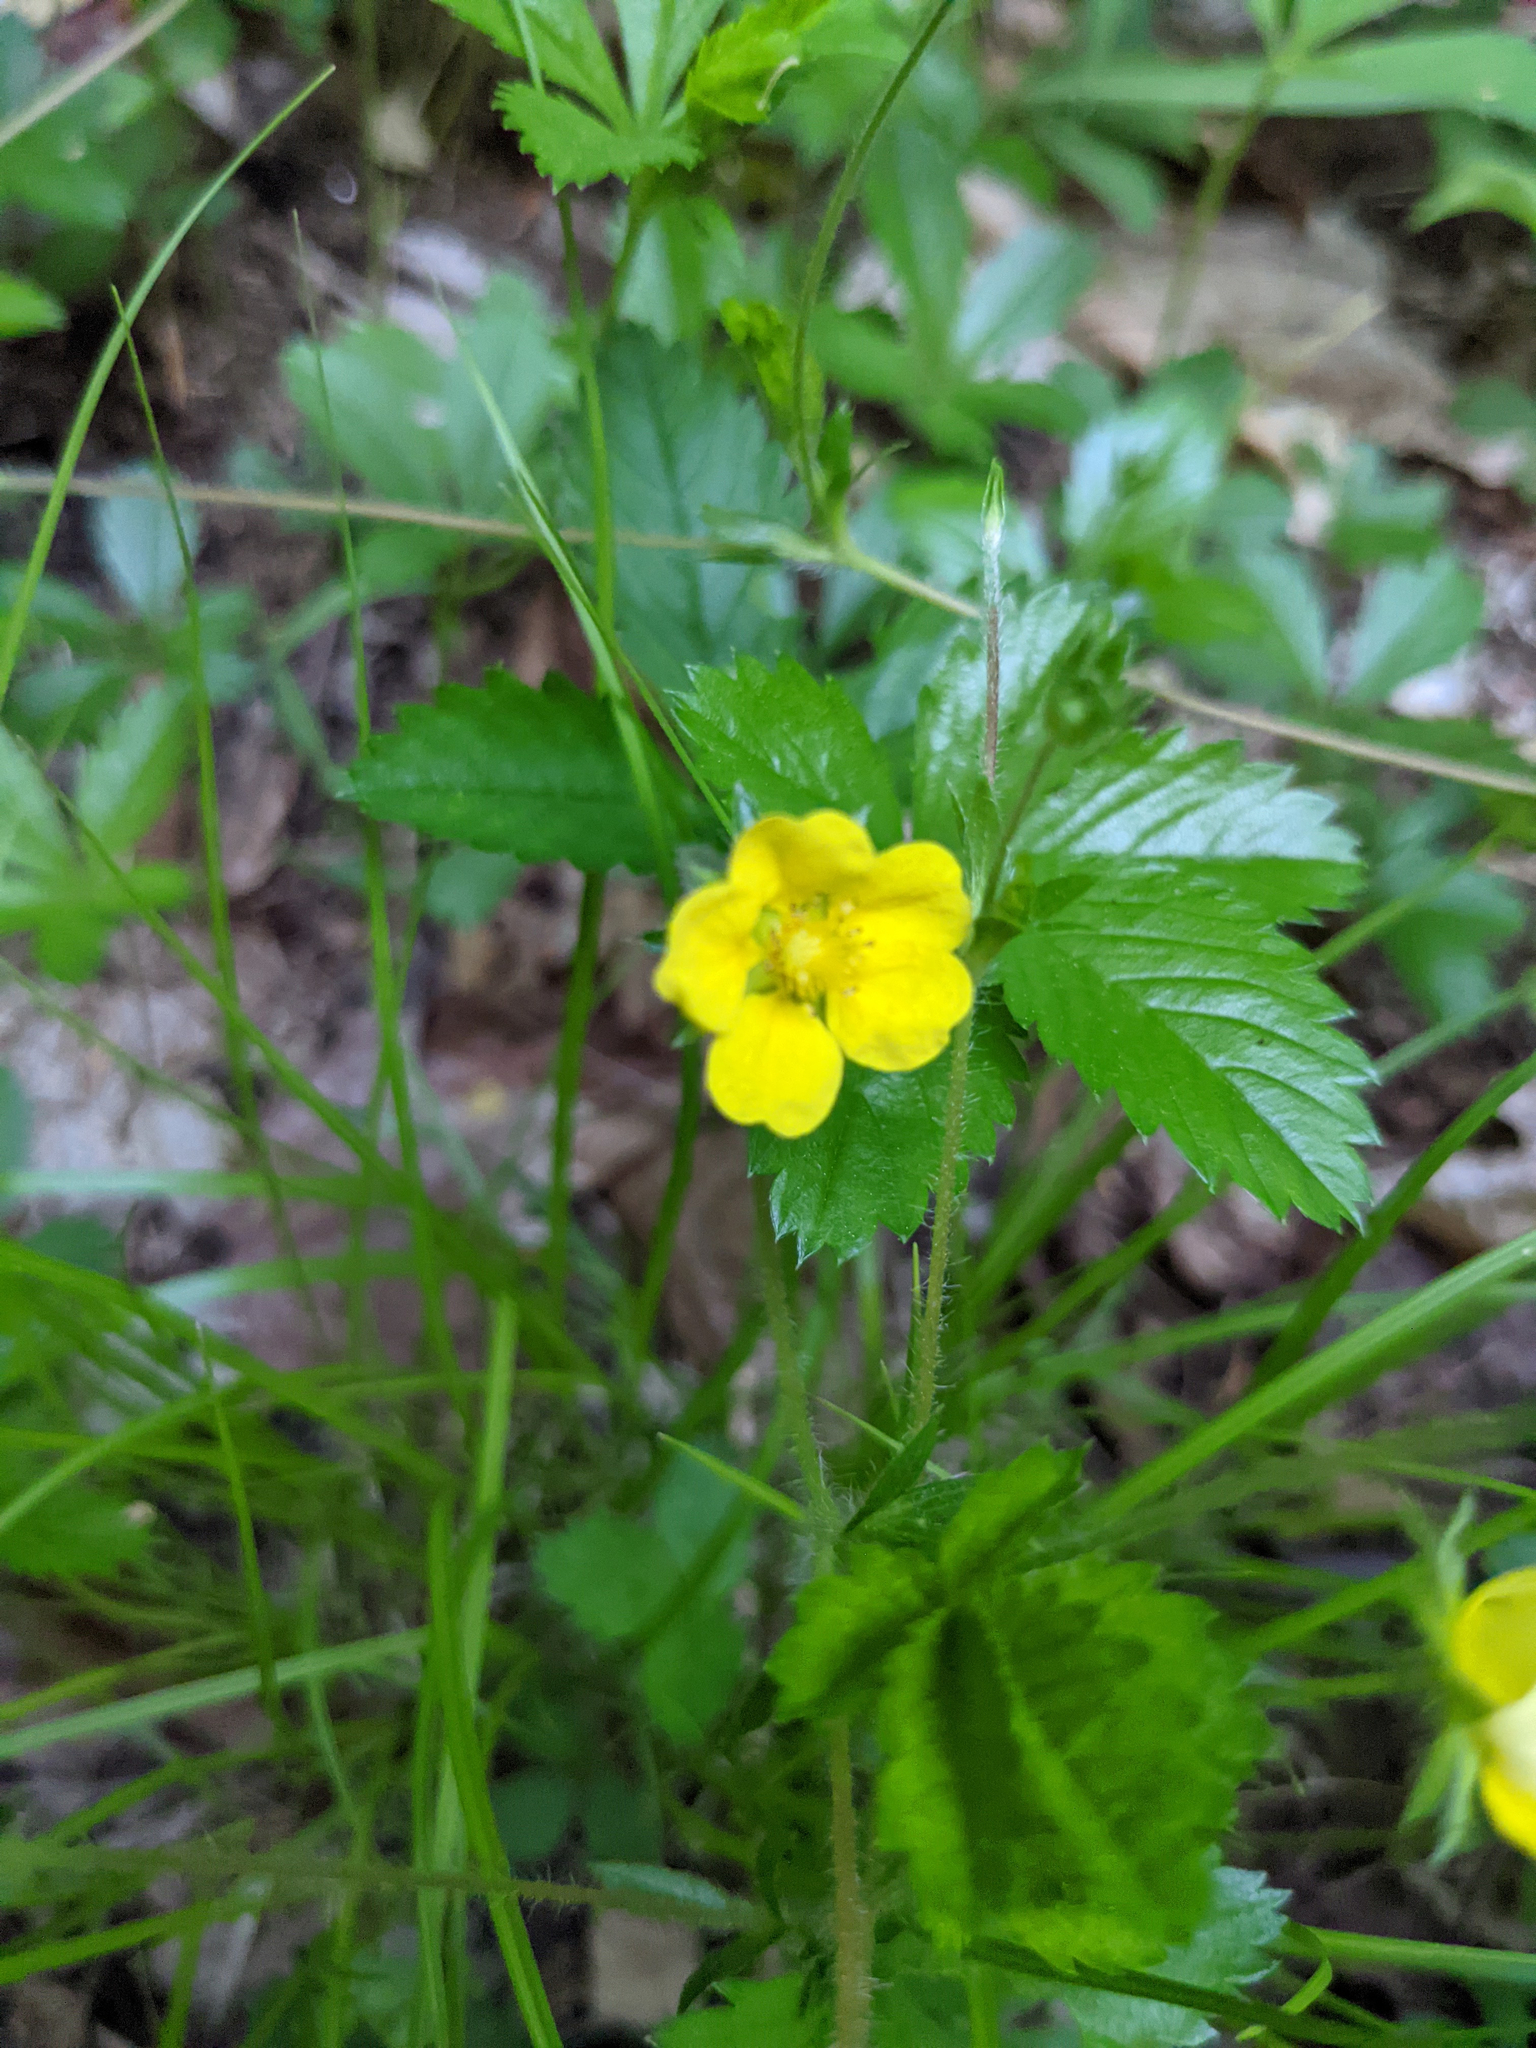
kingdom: Plantae
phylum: Tracheophyta
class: Magnoliopsida
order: Rosales
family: Rosaceae
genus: Potentilla
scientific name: Potentilla simplex
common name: Old field cinquefoil
